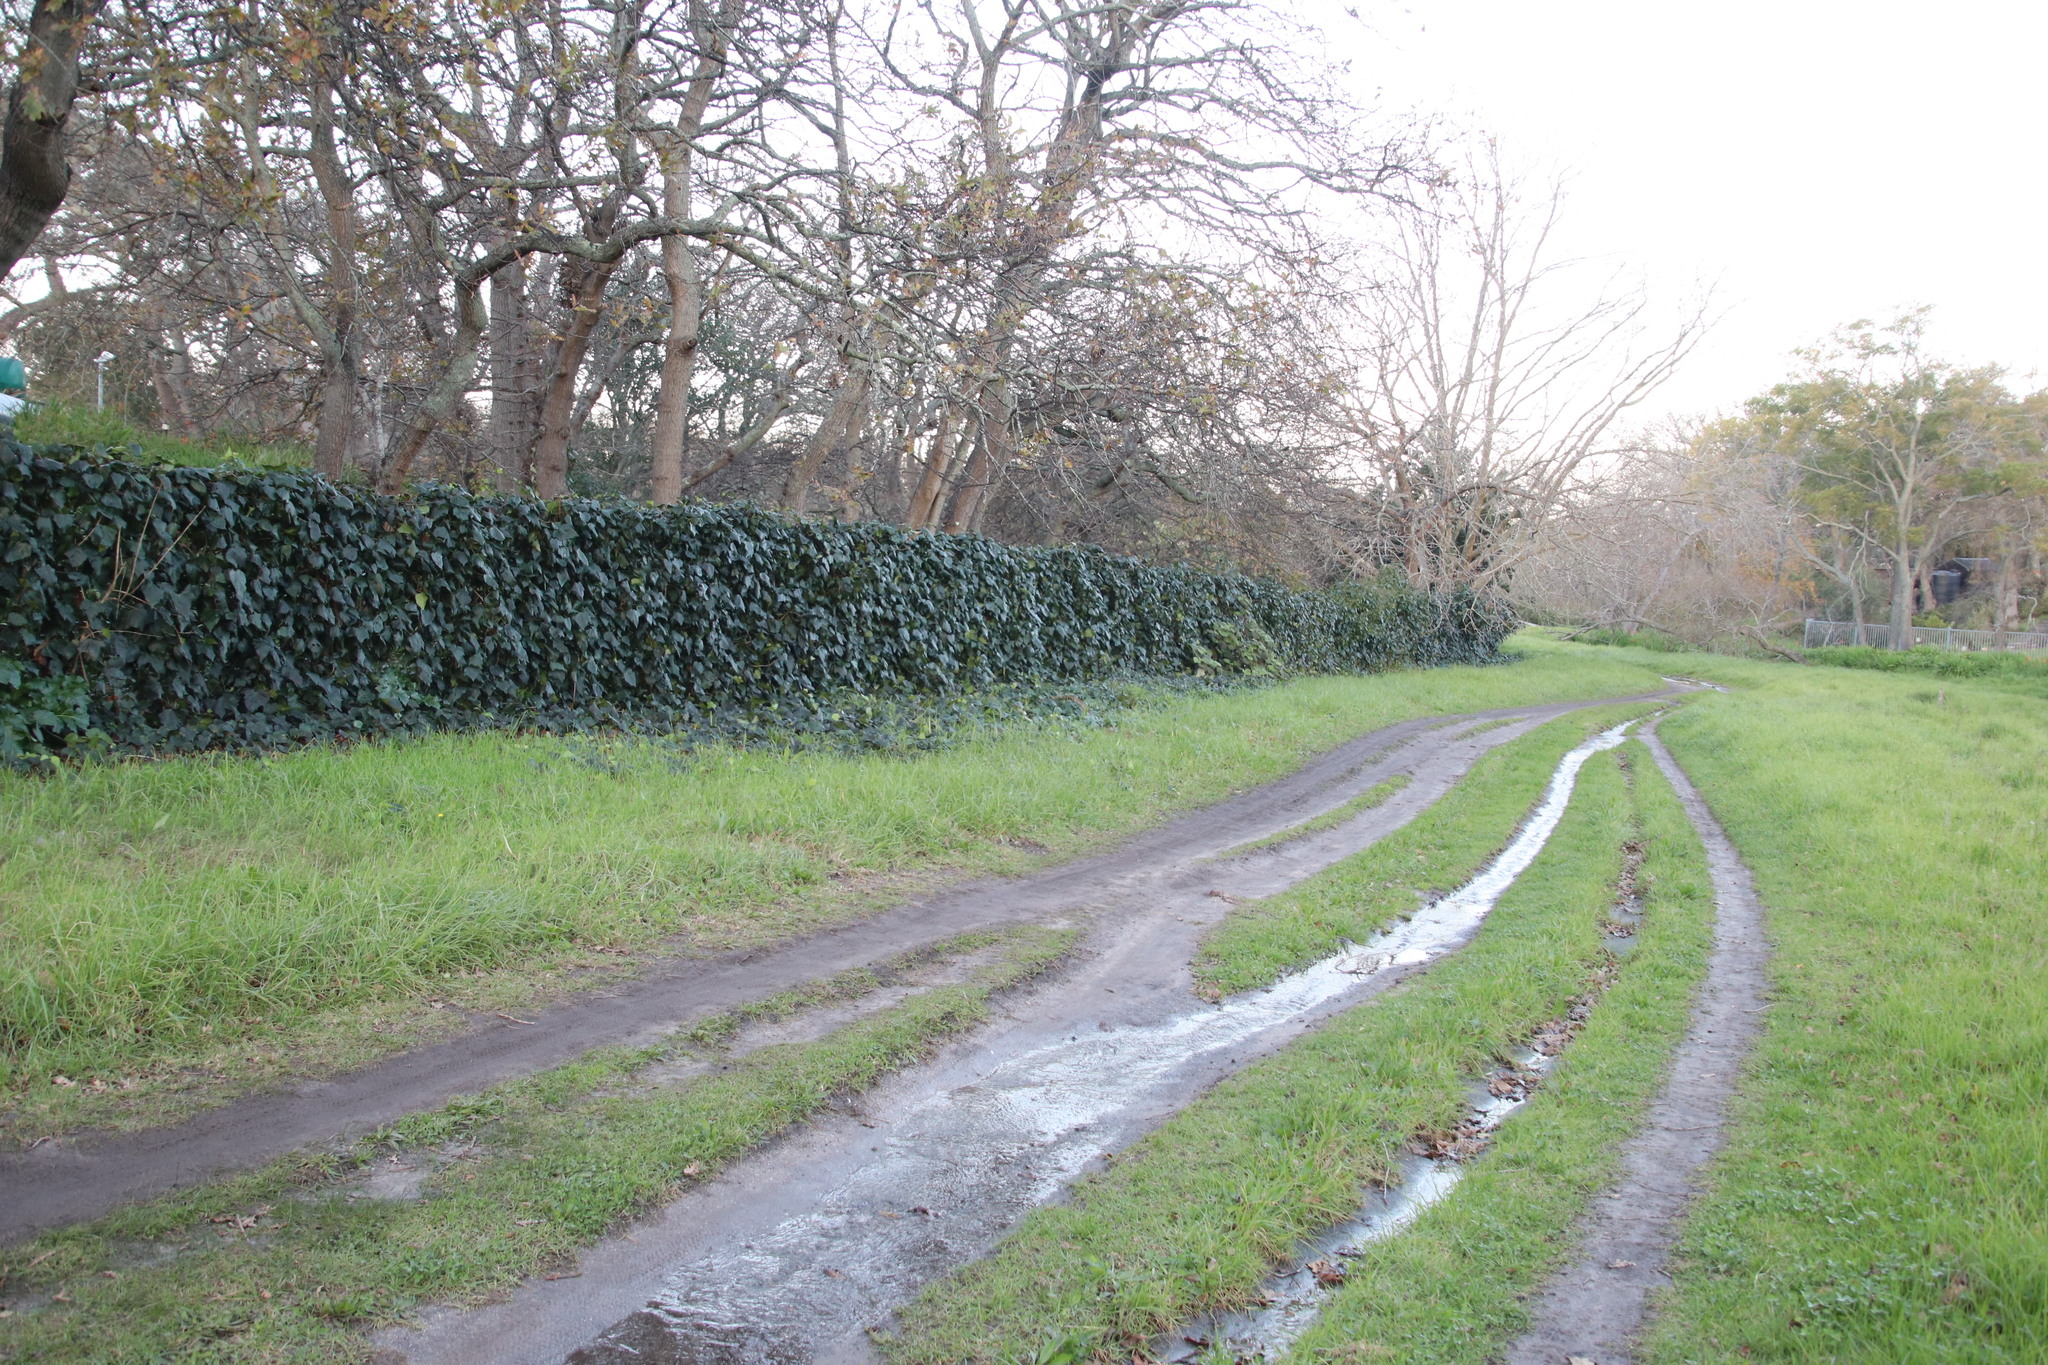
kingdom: Plantae
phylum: Tracheophyta
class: Magnoliopsida
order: Apiales
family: Araliaceae
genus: Hedera
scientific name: Hedera canariensis
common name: Madeira ivy
